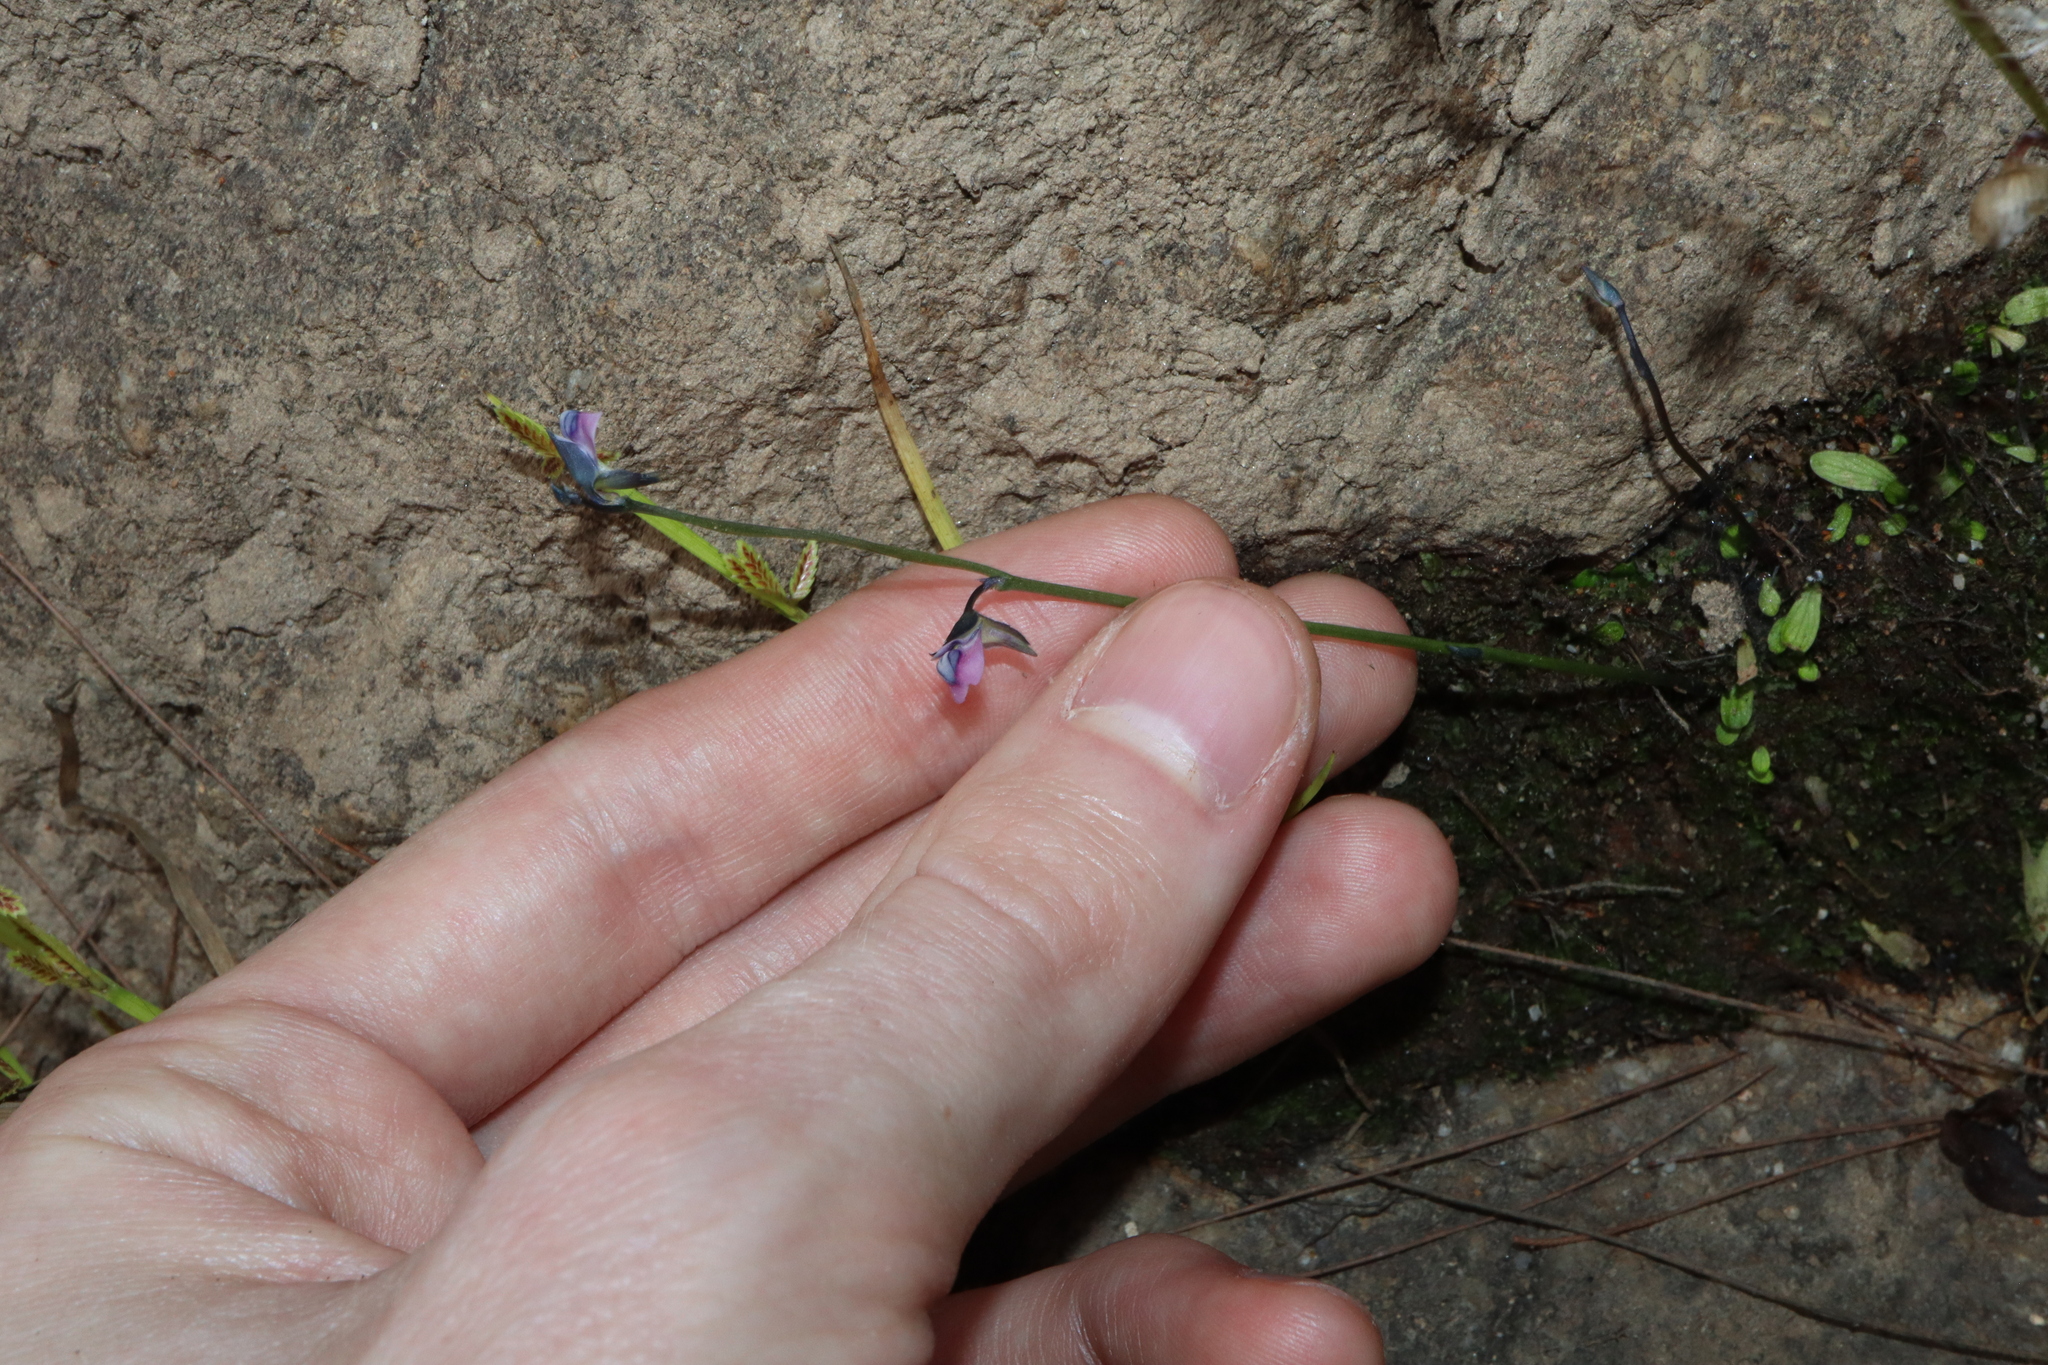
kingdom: Plantae
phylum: Tracheophyta
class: Magnoliopsida
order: Lamiales
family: Lentibulariaceae
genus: Utricularia
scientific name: Utricularia uliginosa
